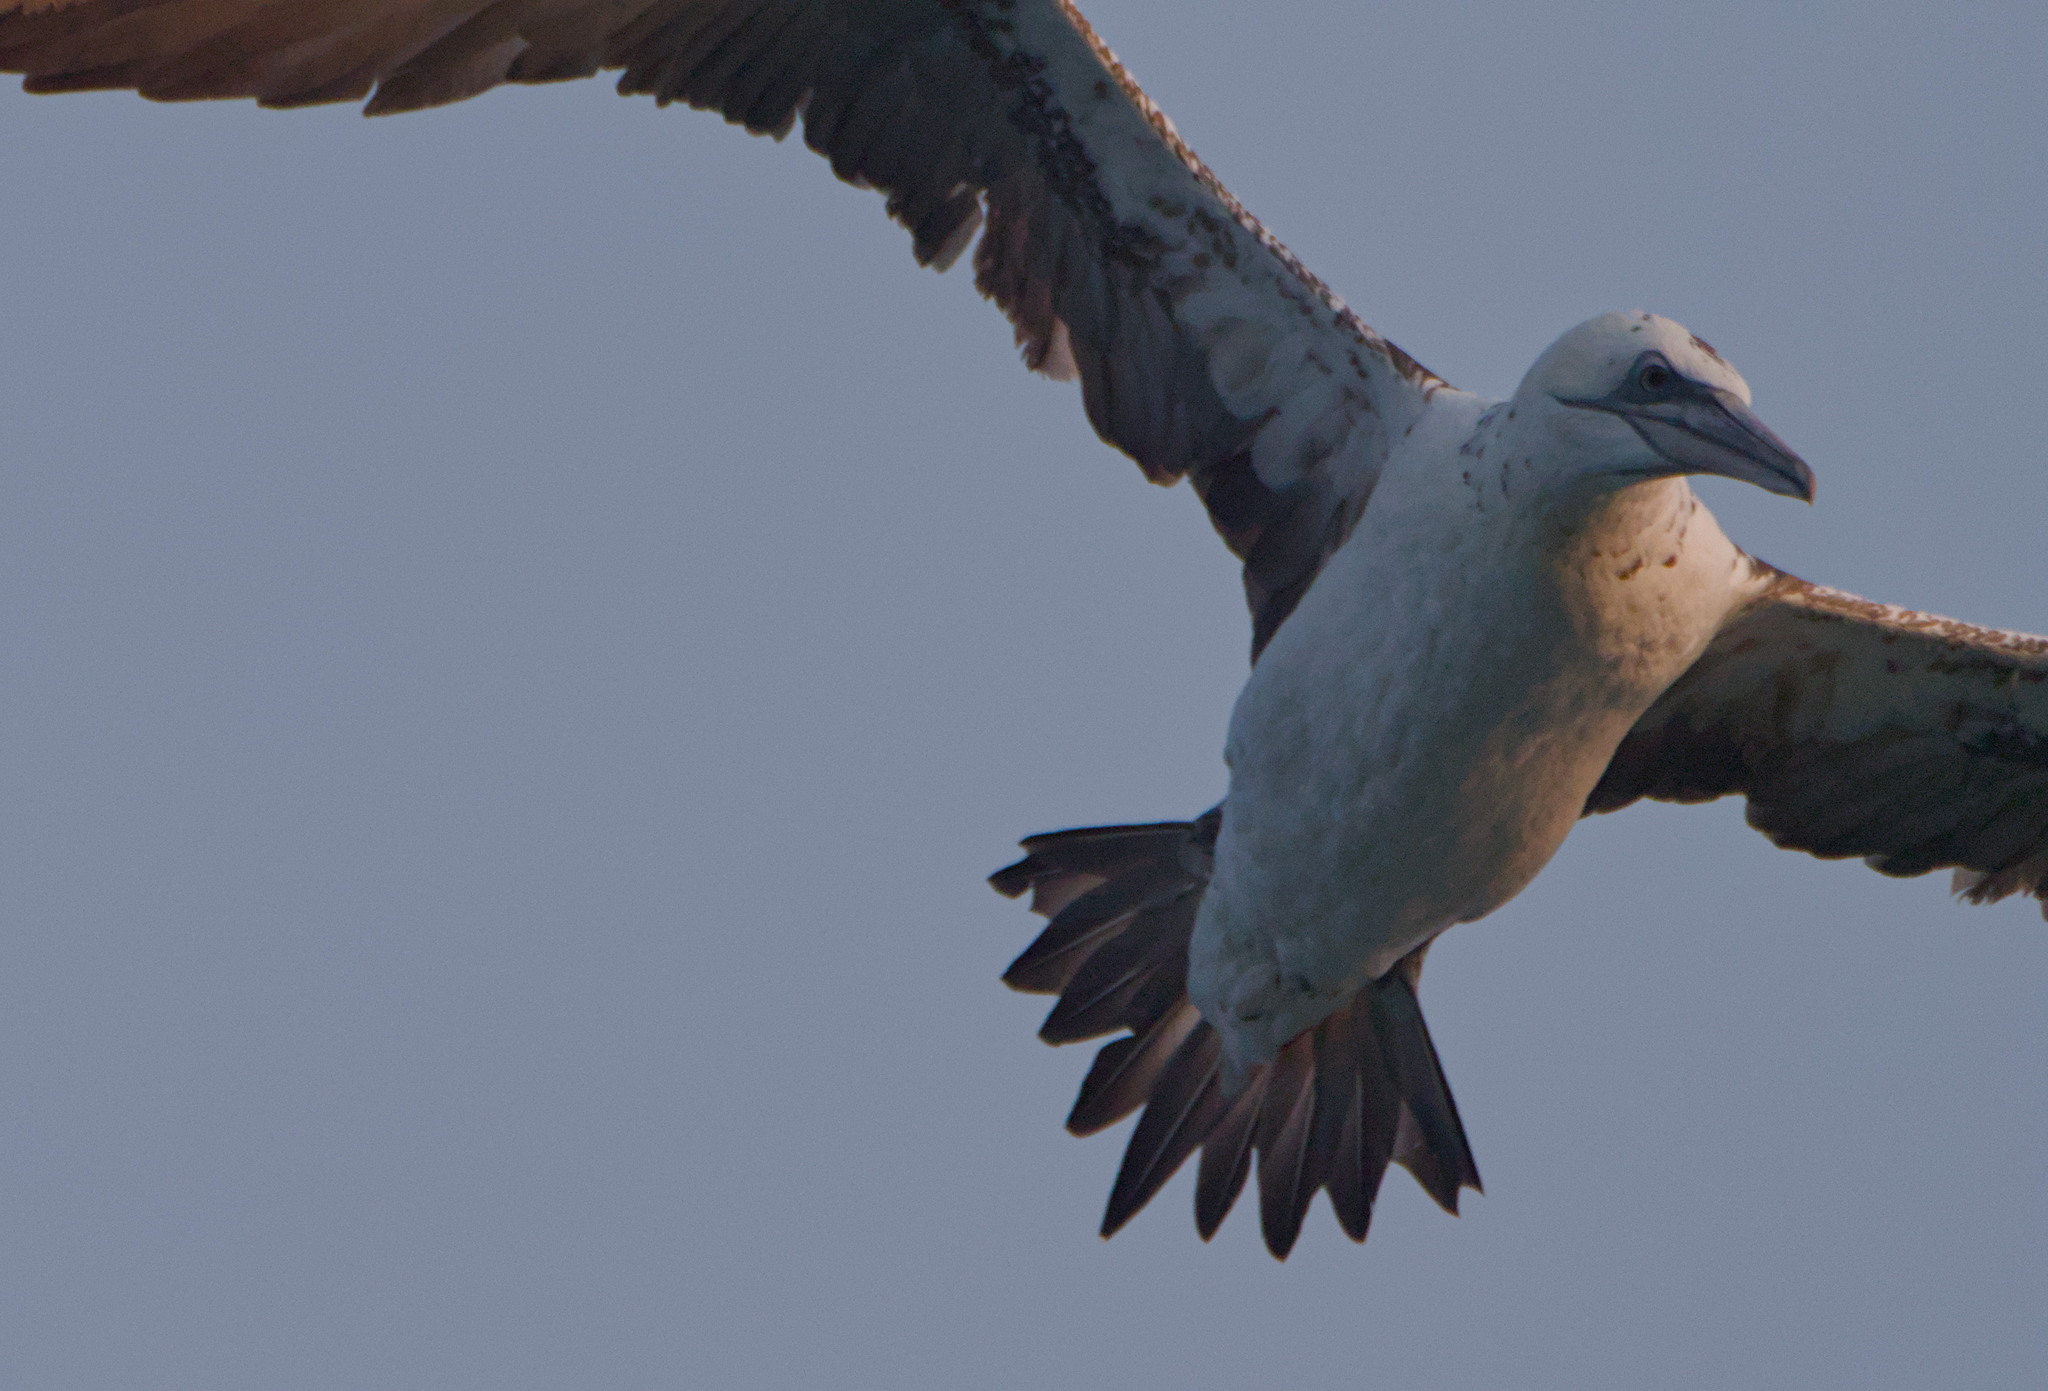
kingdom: Animalia
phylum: Chordata
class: Aves
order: Suliformes
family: Sulidae
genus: Morus
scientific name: Morus bassanus
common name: Northern gannet
